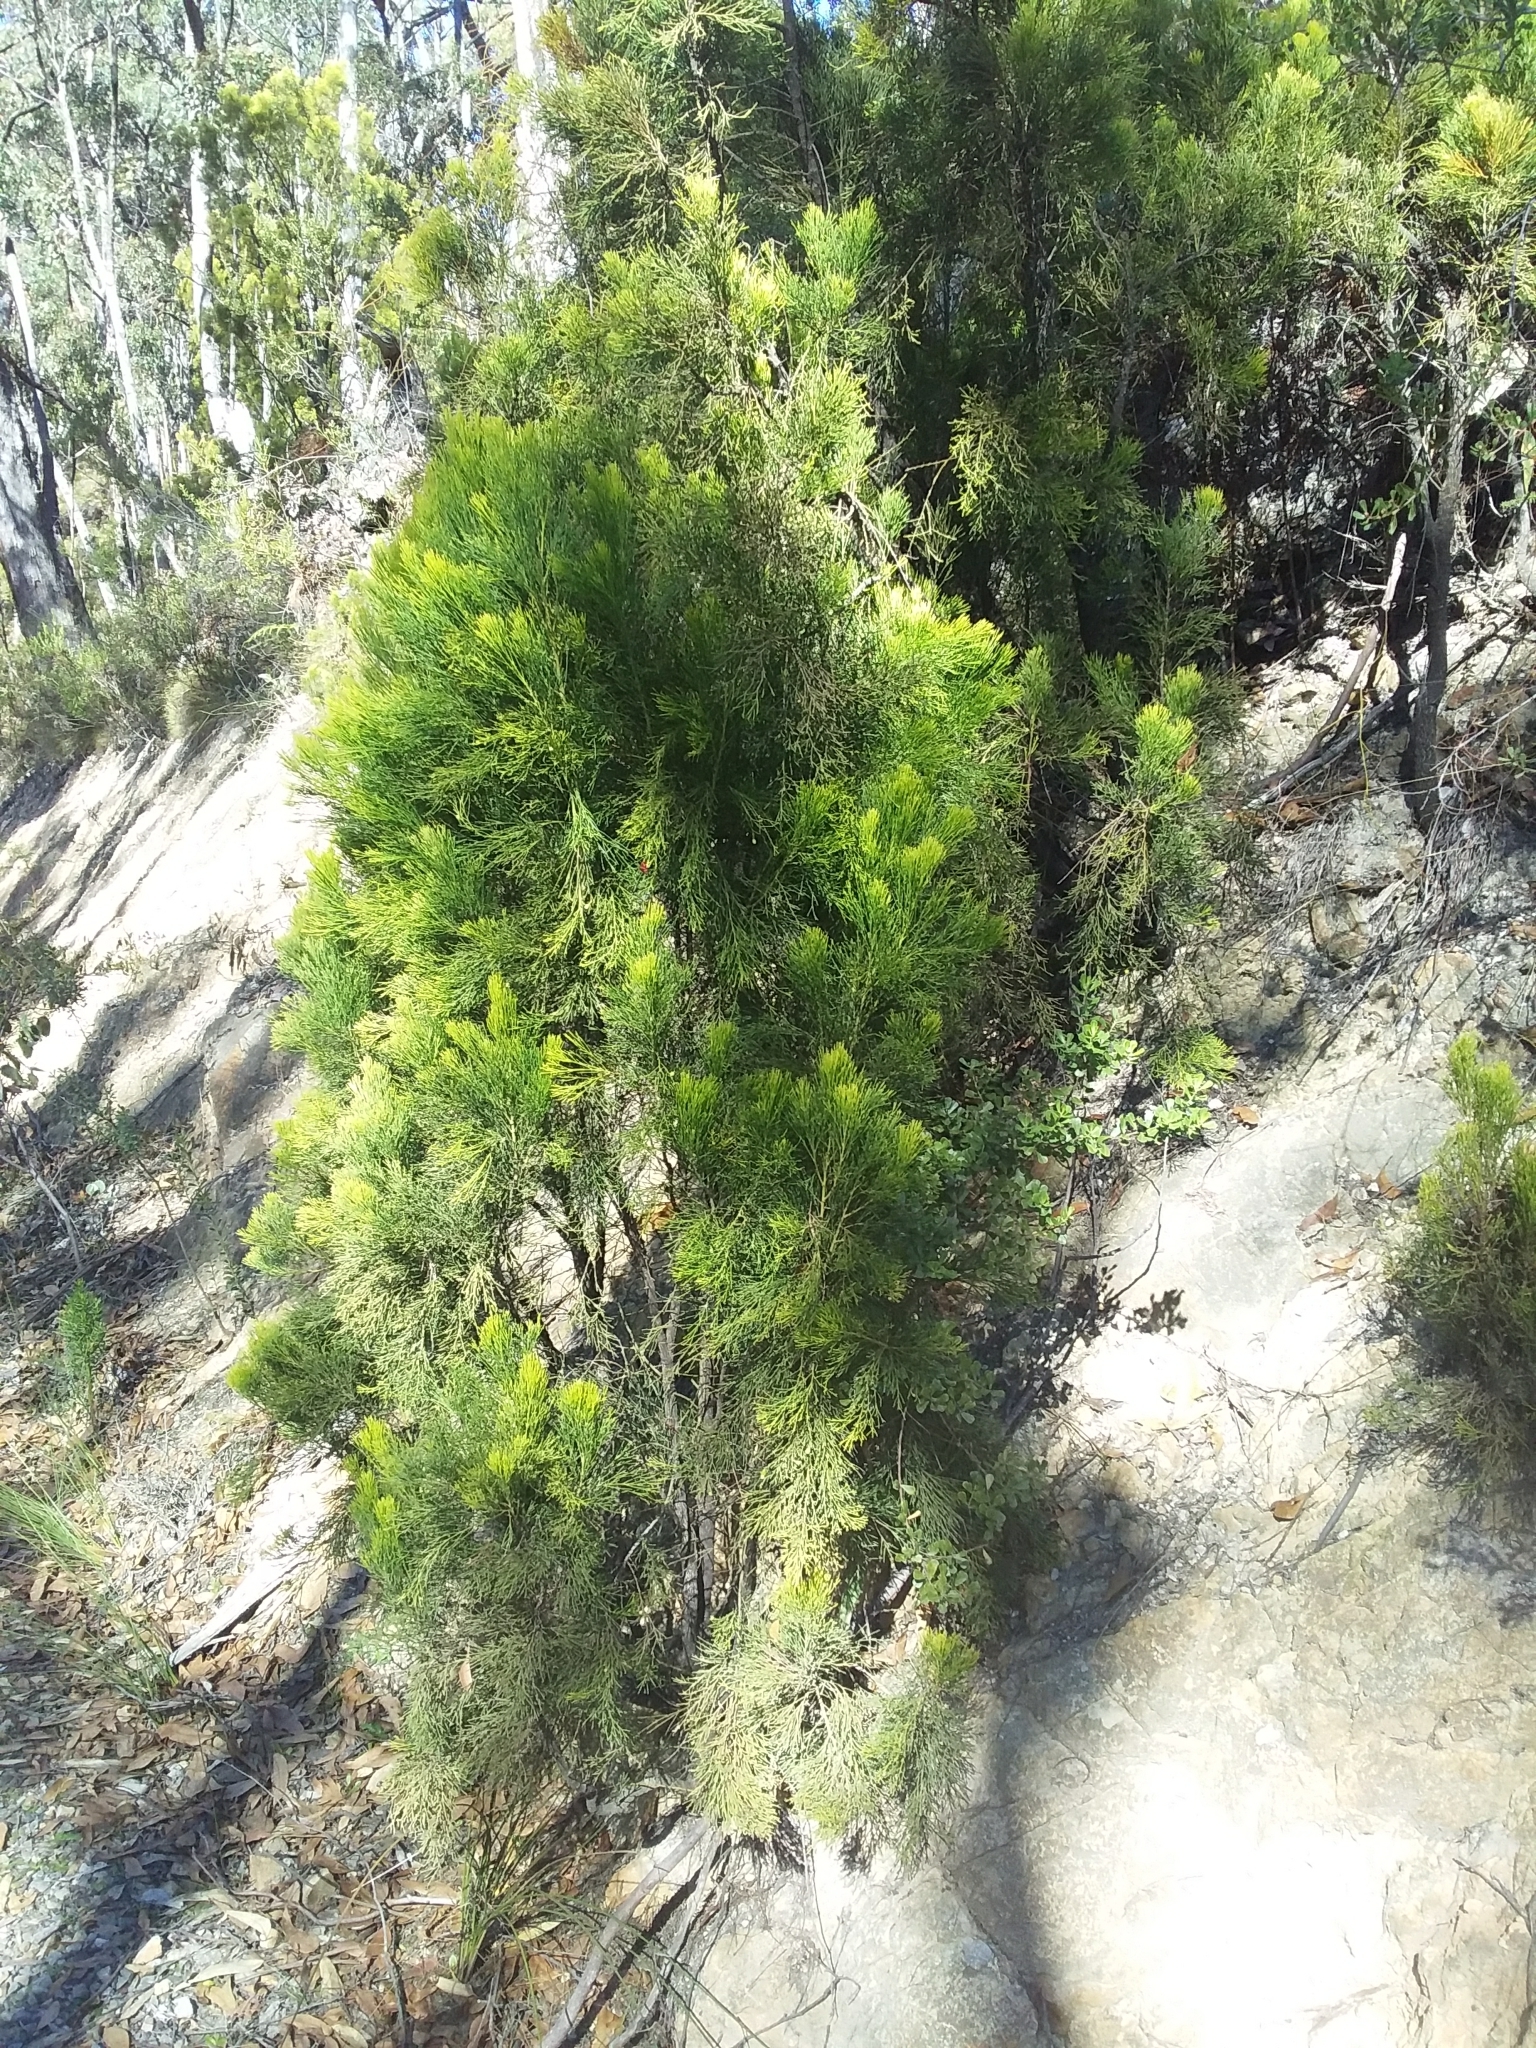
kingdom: Plantae
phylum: Tracheophyta
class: Magnoliopsida
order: Santalales
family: Santalaceae
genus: Exocarpos
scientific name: Exocarpos cupressiformis
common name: Cherry ballart
